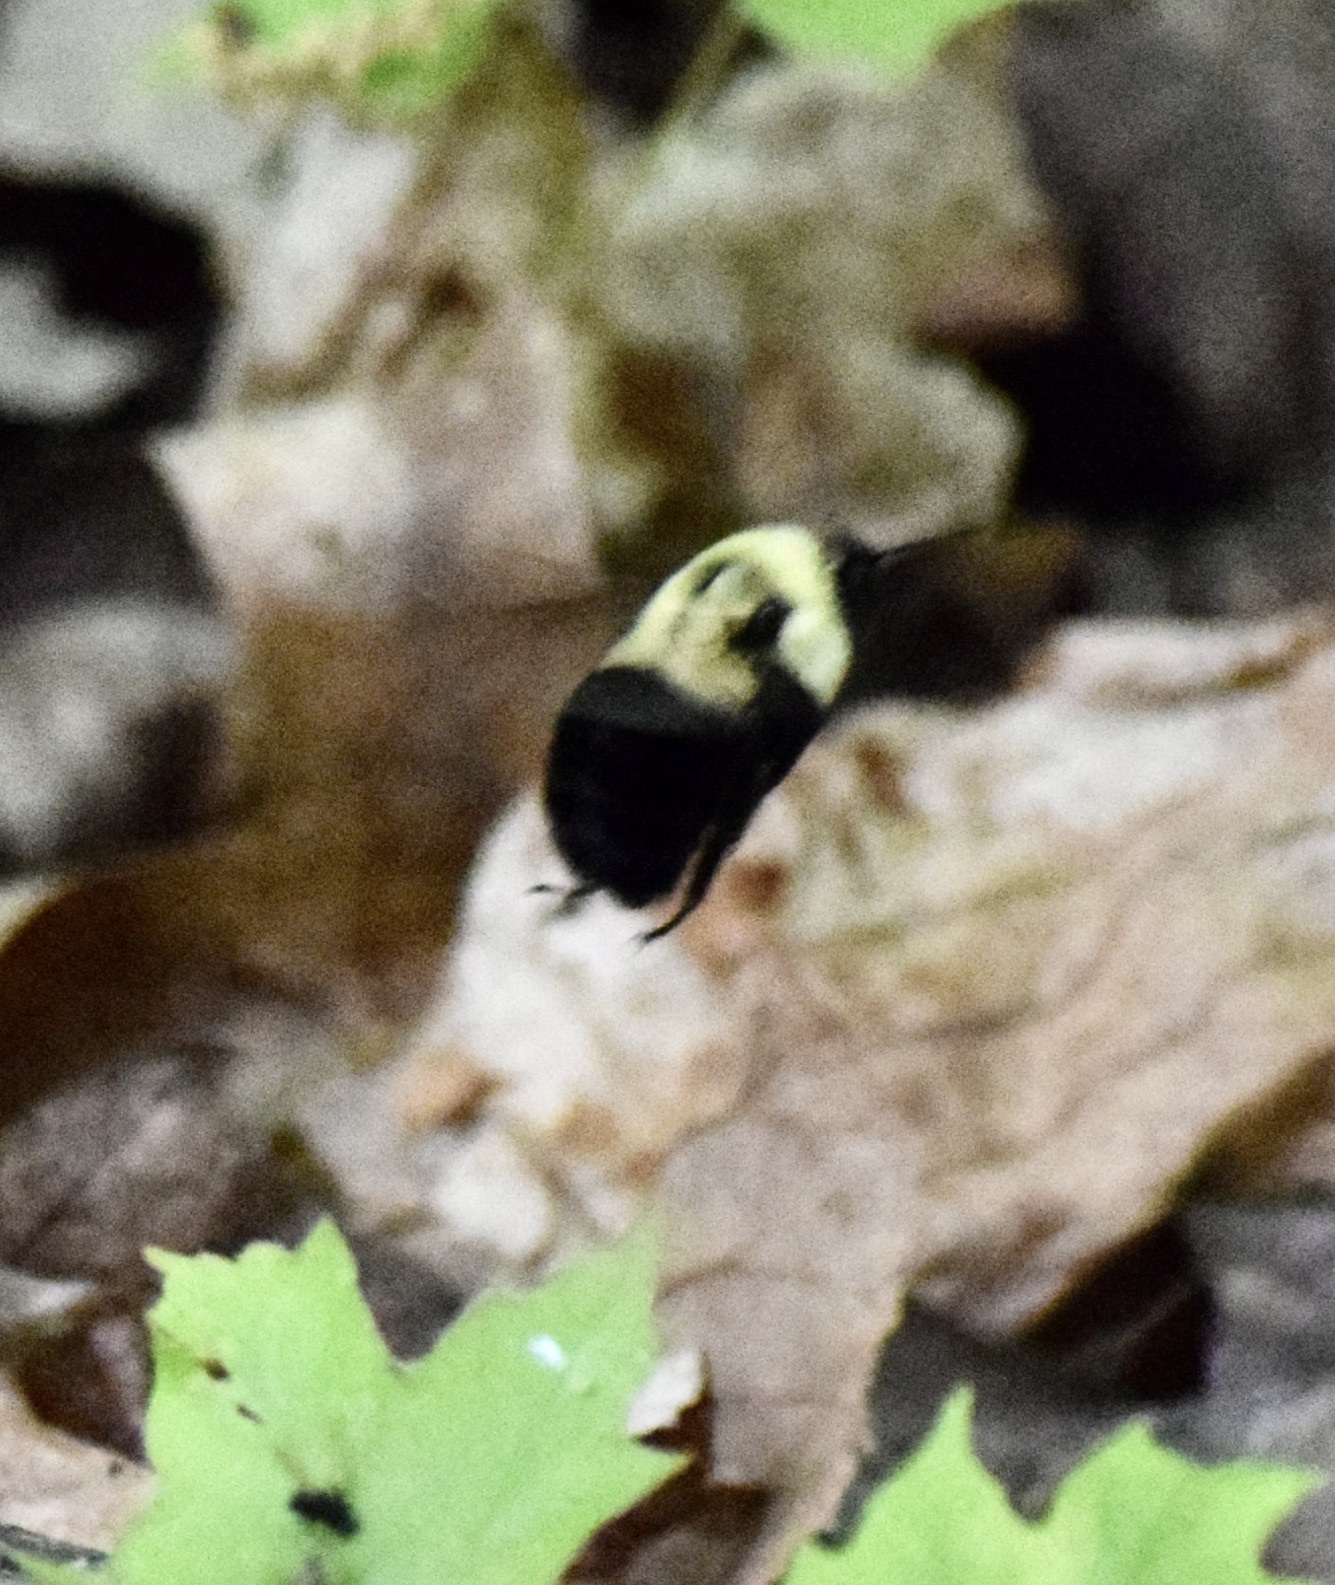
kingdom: Animalia
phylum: Arthropoda
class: Insecta
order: Hymenoptera
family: Apidae
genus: Bombus
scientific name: Bombus impatiens
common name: Common eastern bumble bee
